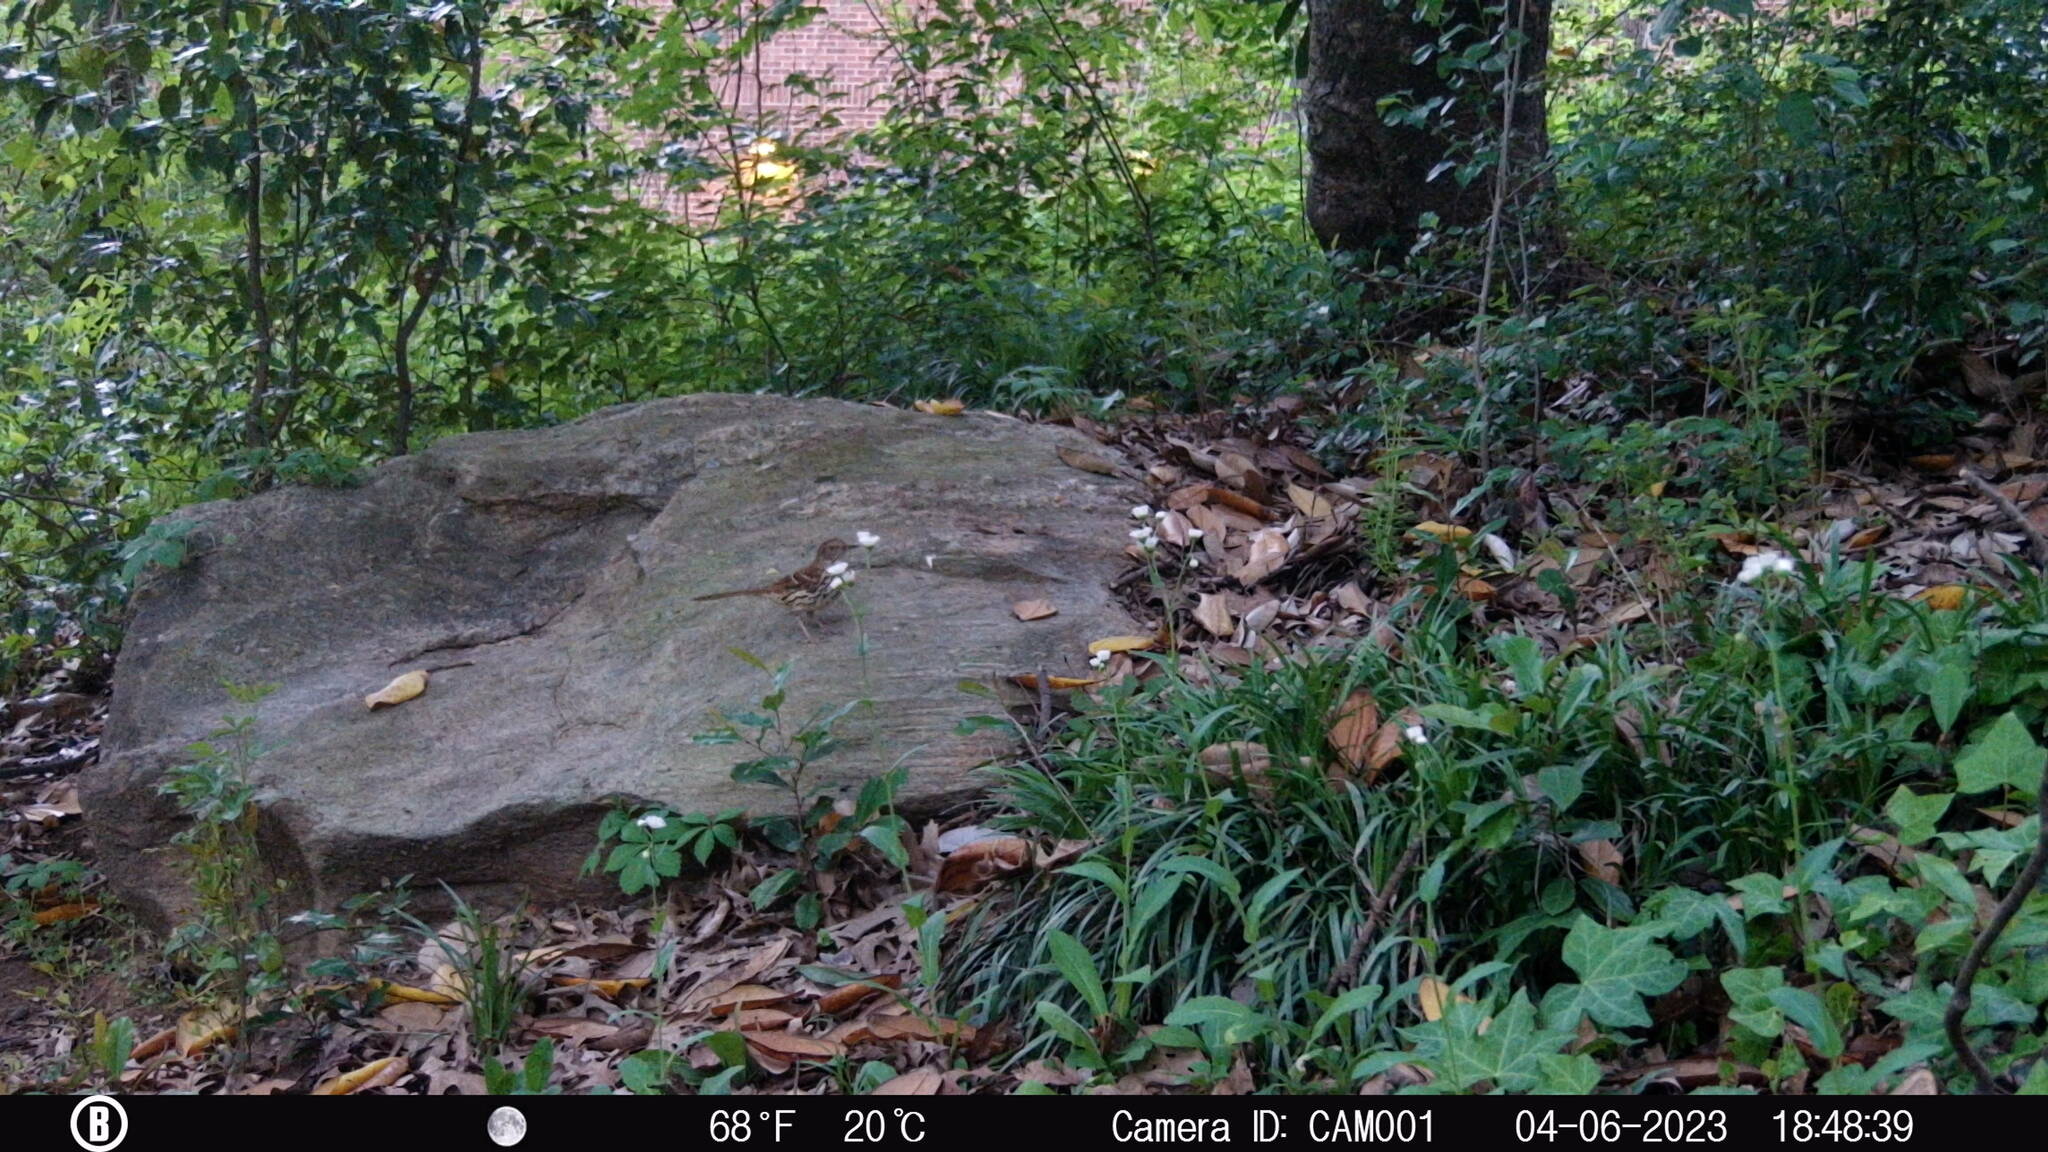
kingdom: Animalia
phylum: Chordata
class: Aves
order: Passeriformes
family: Mimidae
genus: Toxostoma
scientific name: Toxostoma rufum
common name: Brown thrasher
